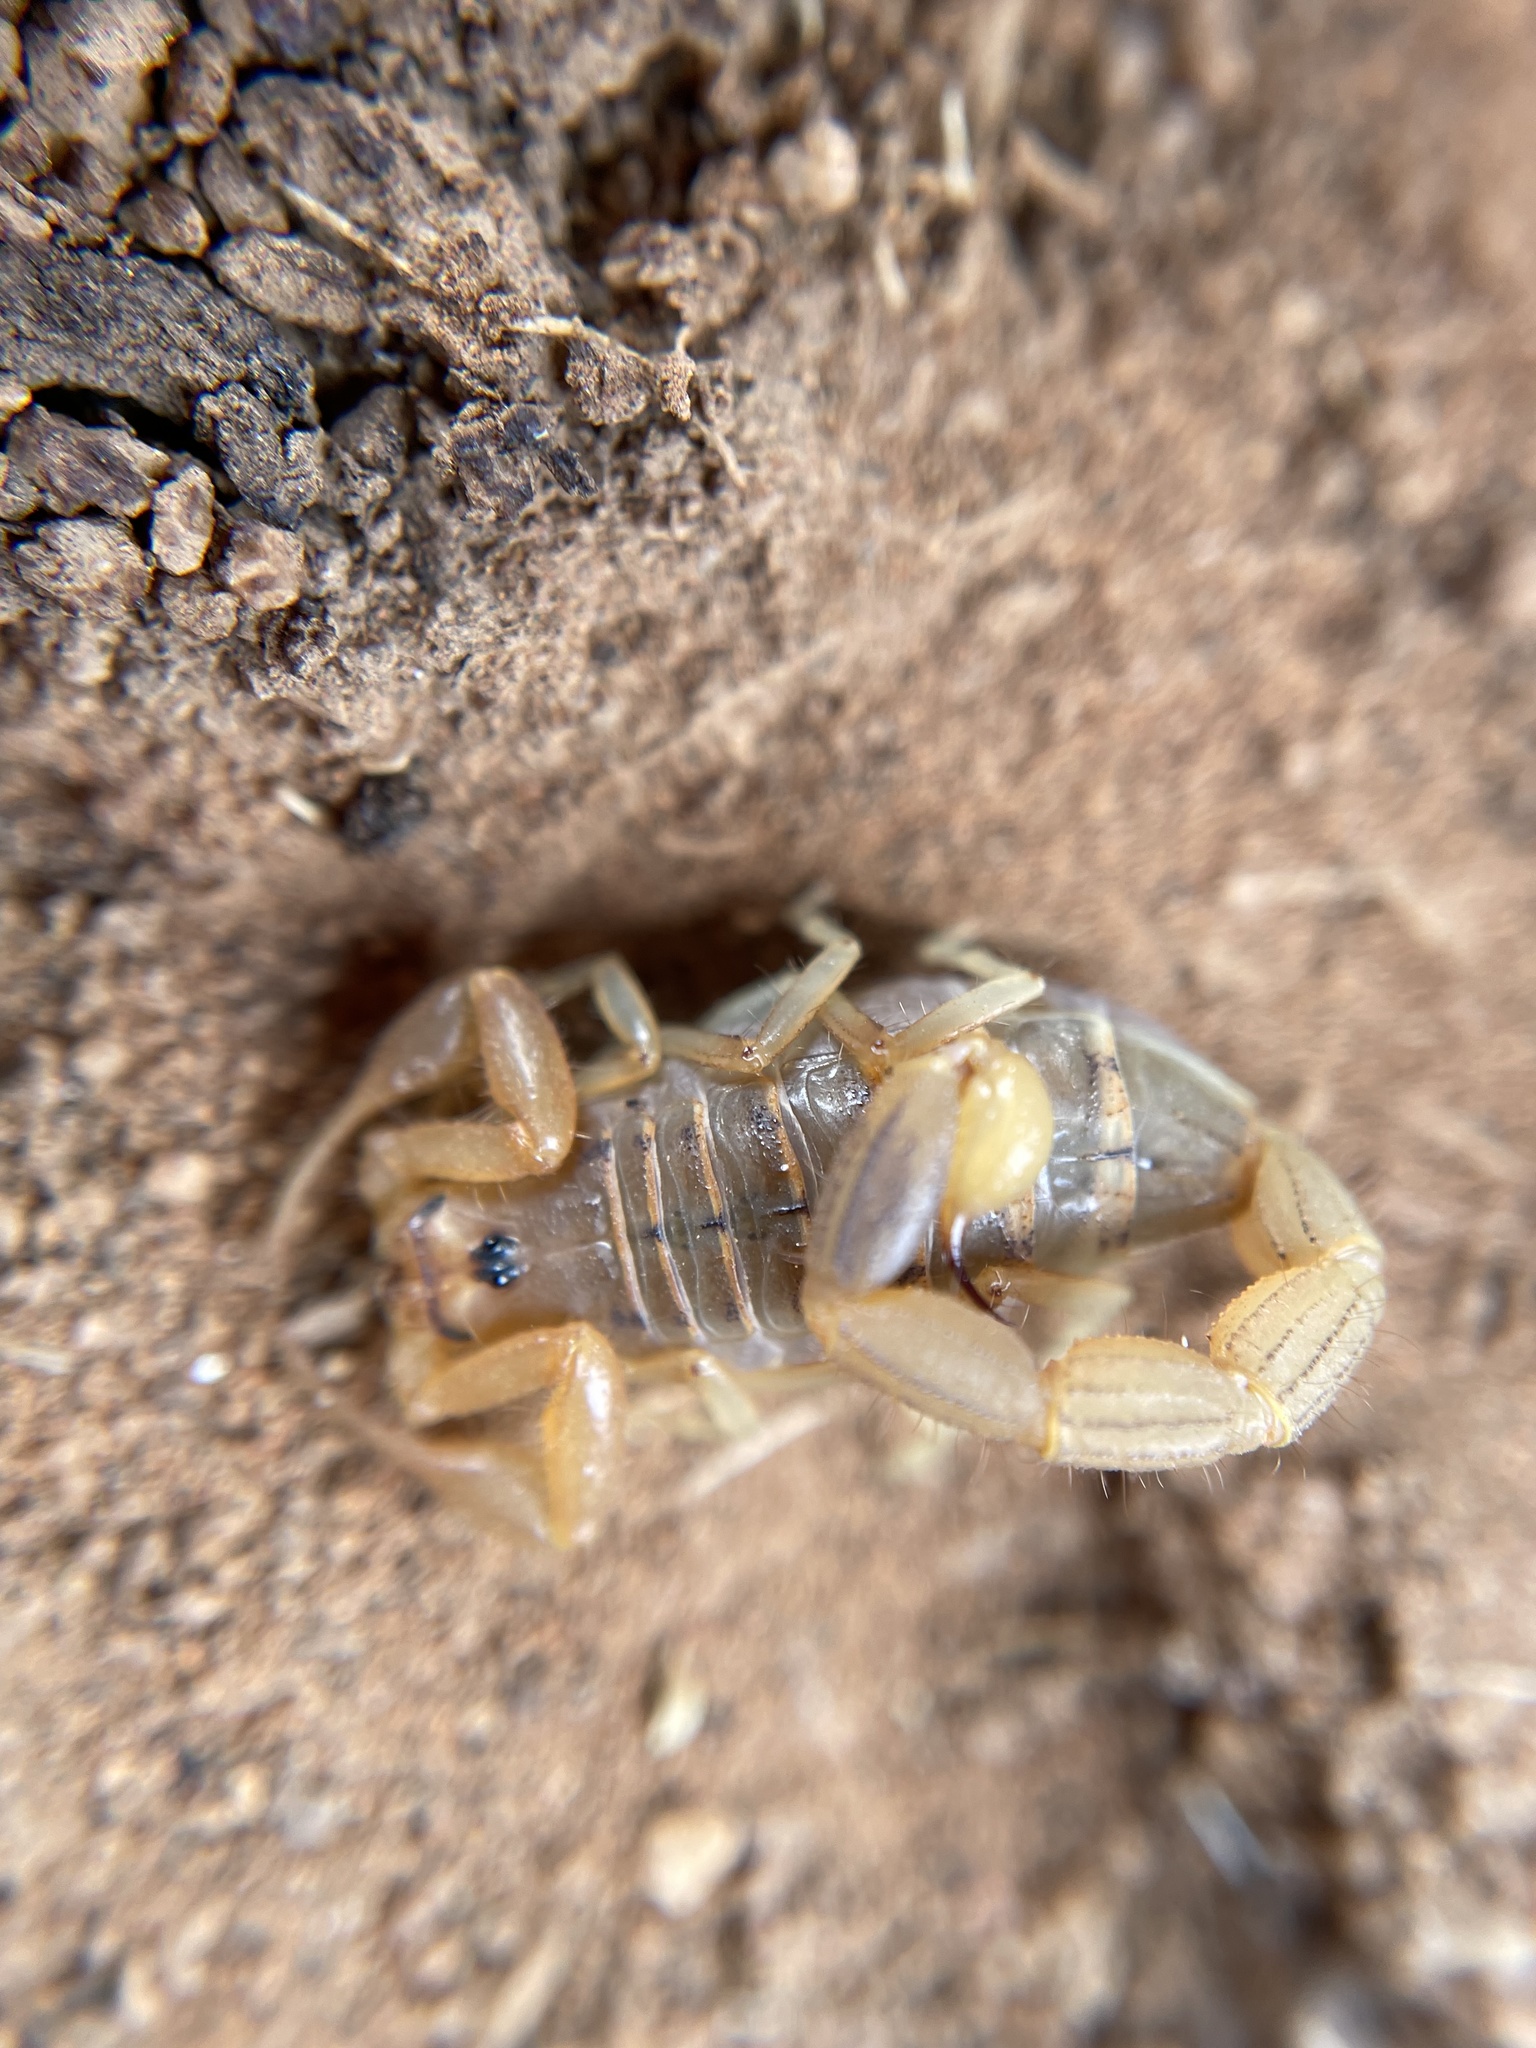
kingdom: Animalia
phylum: Arthropoda
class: Arachnida
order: Scorpiones
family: Buthidae
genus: Uroplectes
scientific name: Uroplectes carinatus
